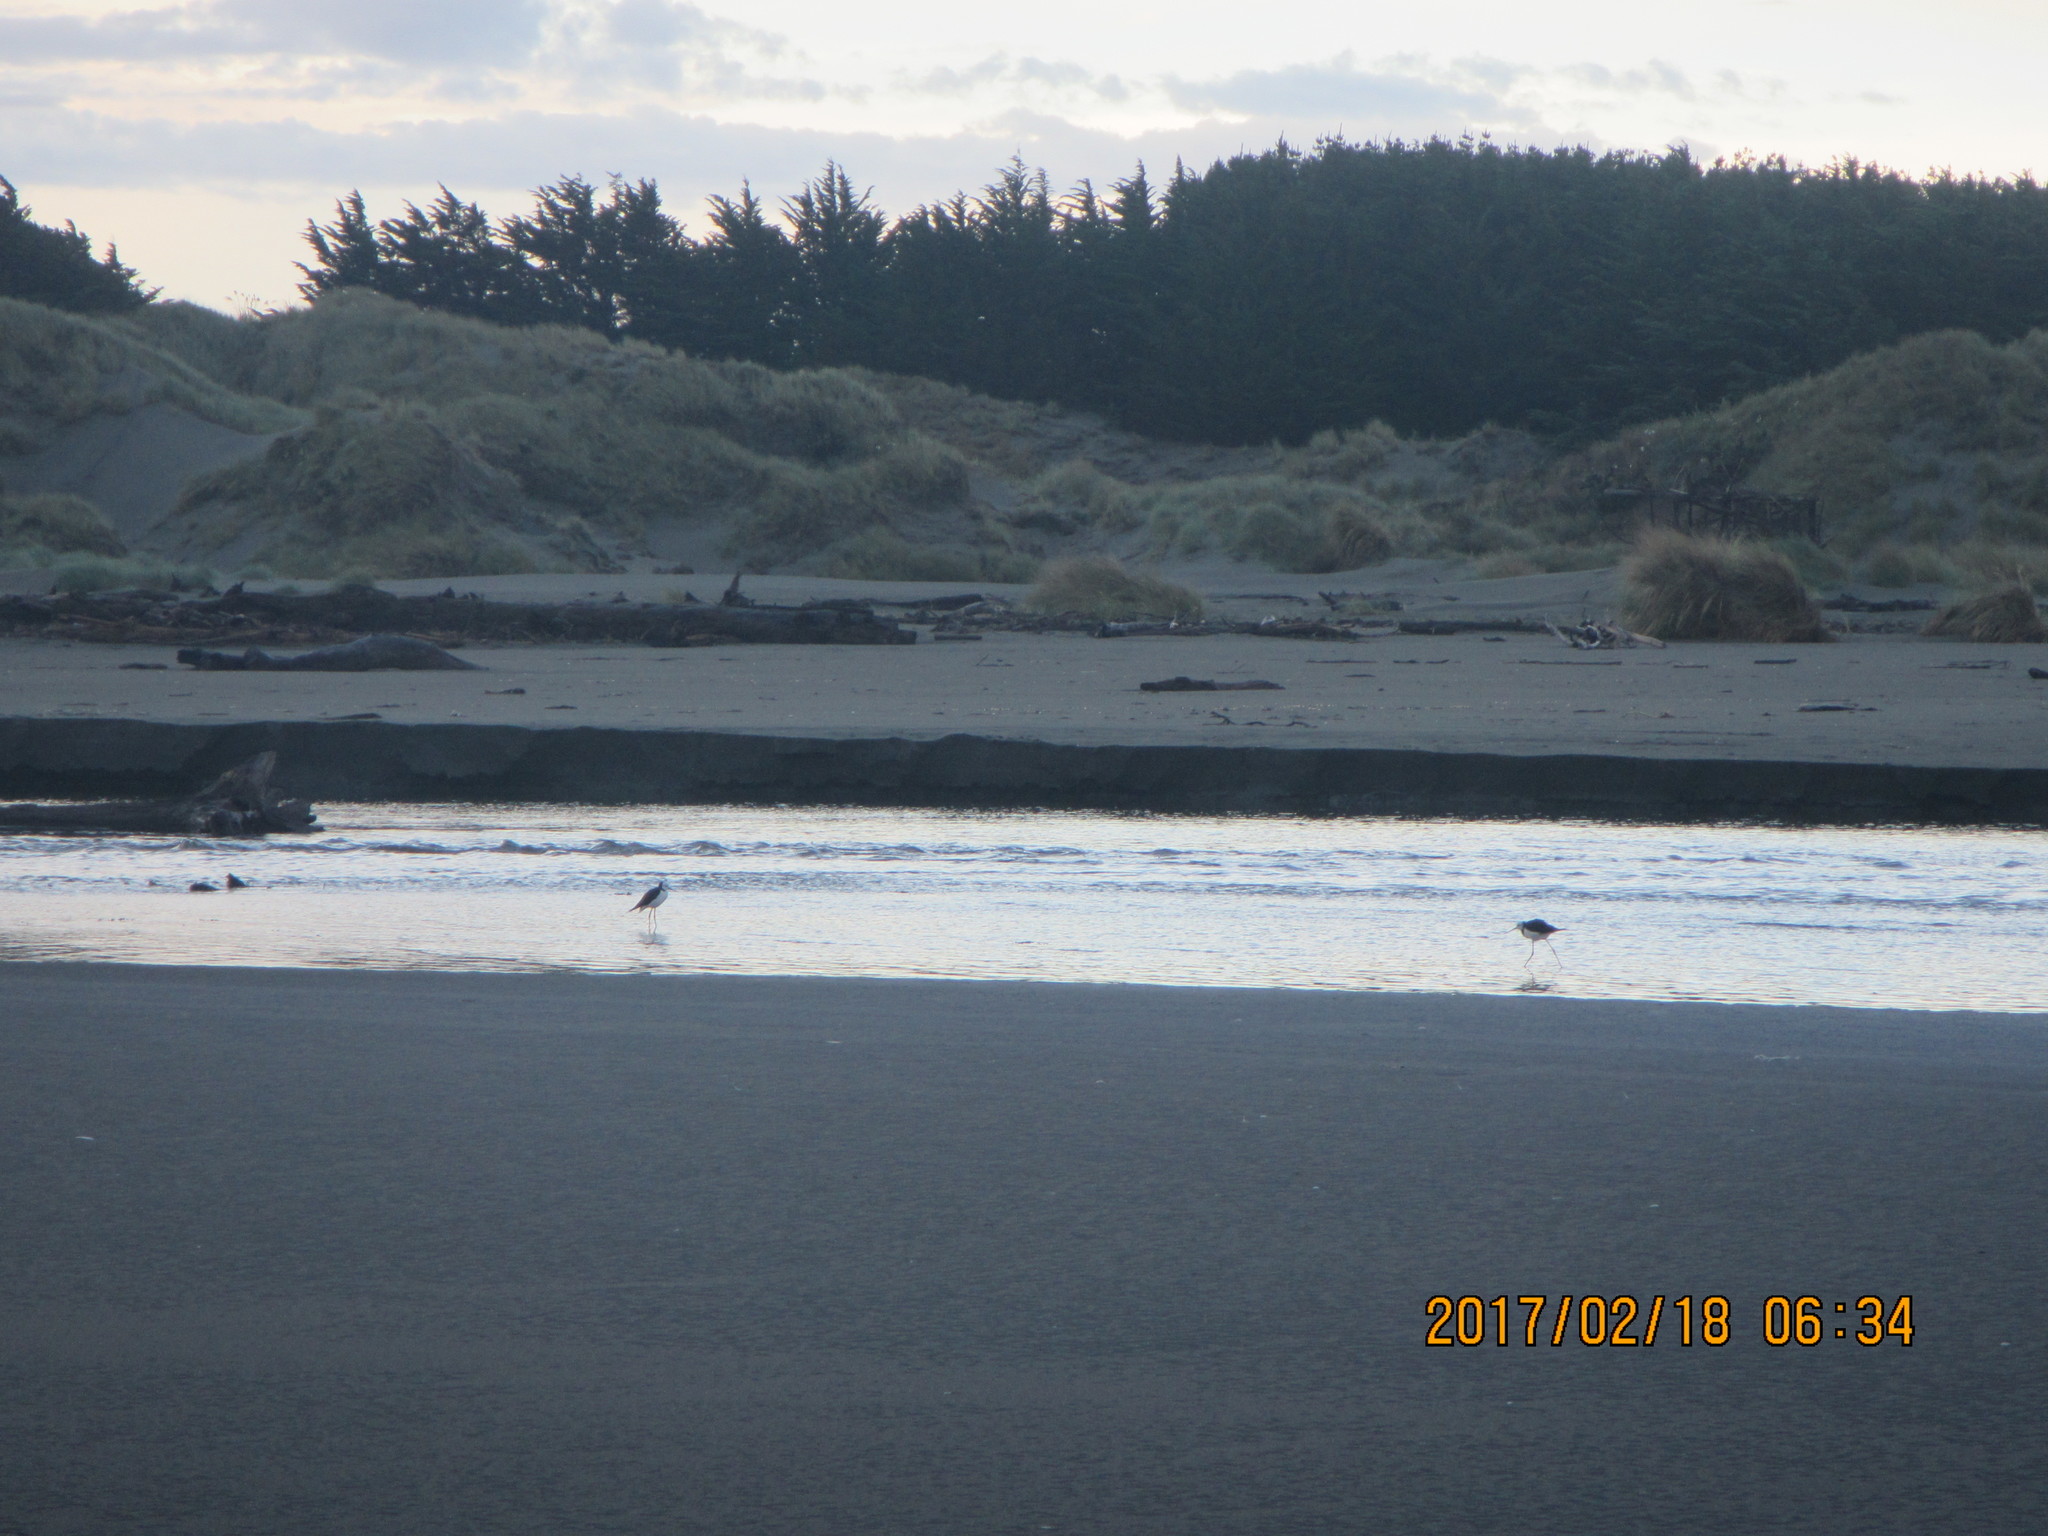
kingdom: Animalia
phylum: Chordata
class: Aves
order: Charadriiformes
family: Recurvirostridae
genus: Himantopus
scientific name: Himantopus leucocephalus
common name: White-headed stilt
